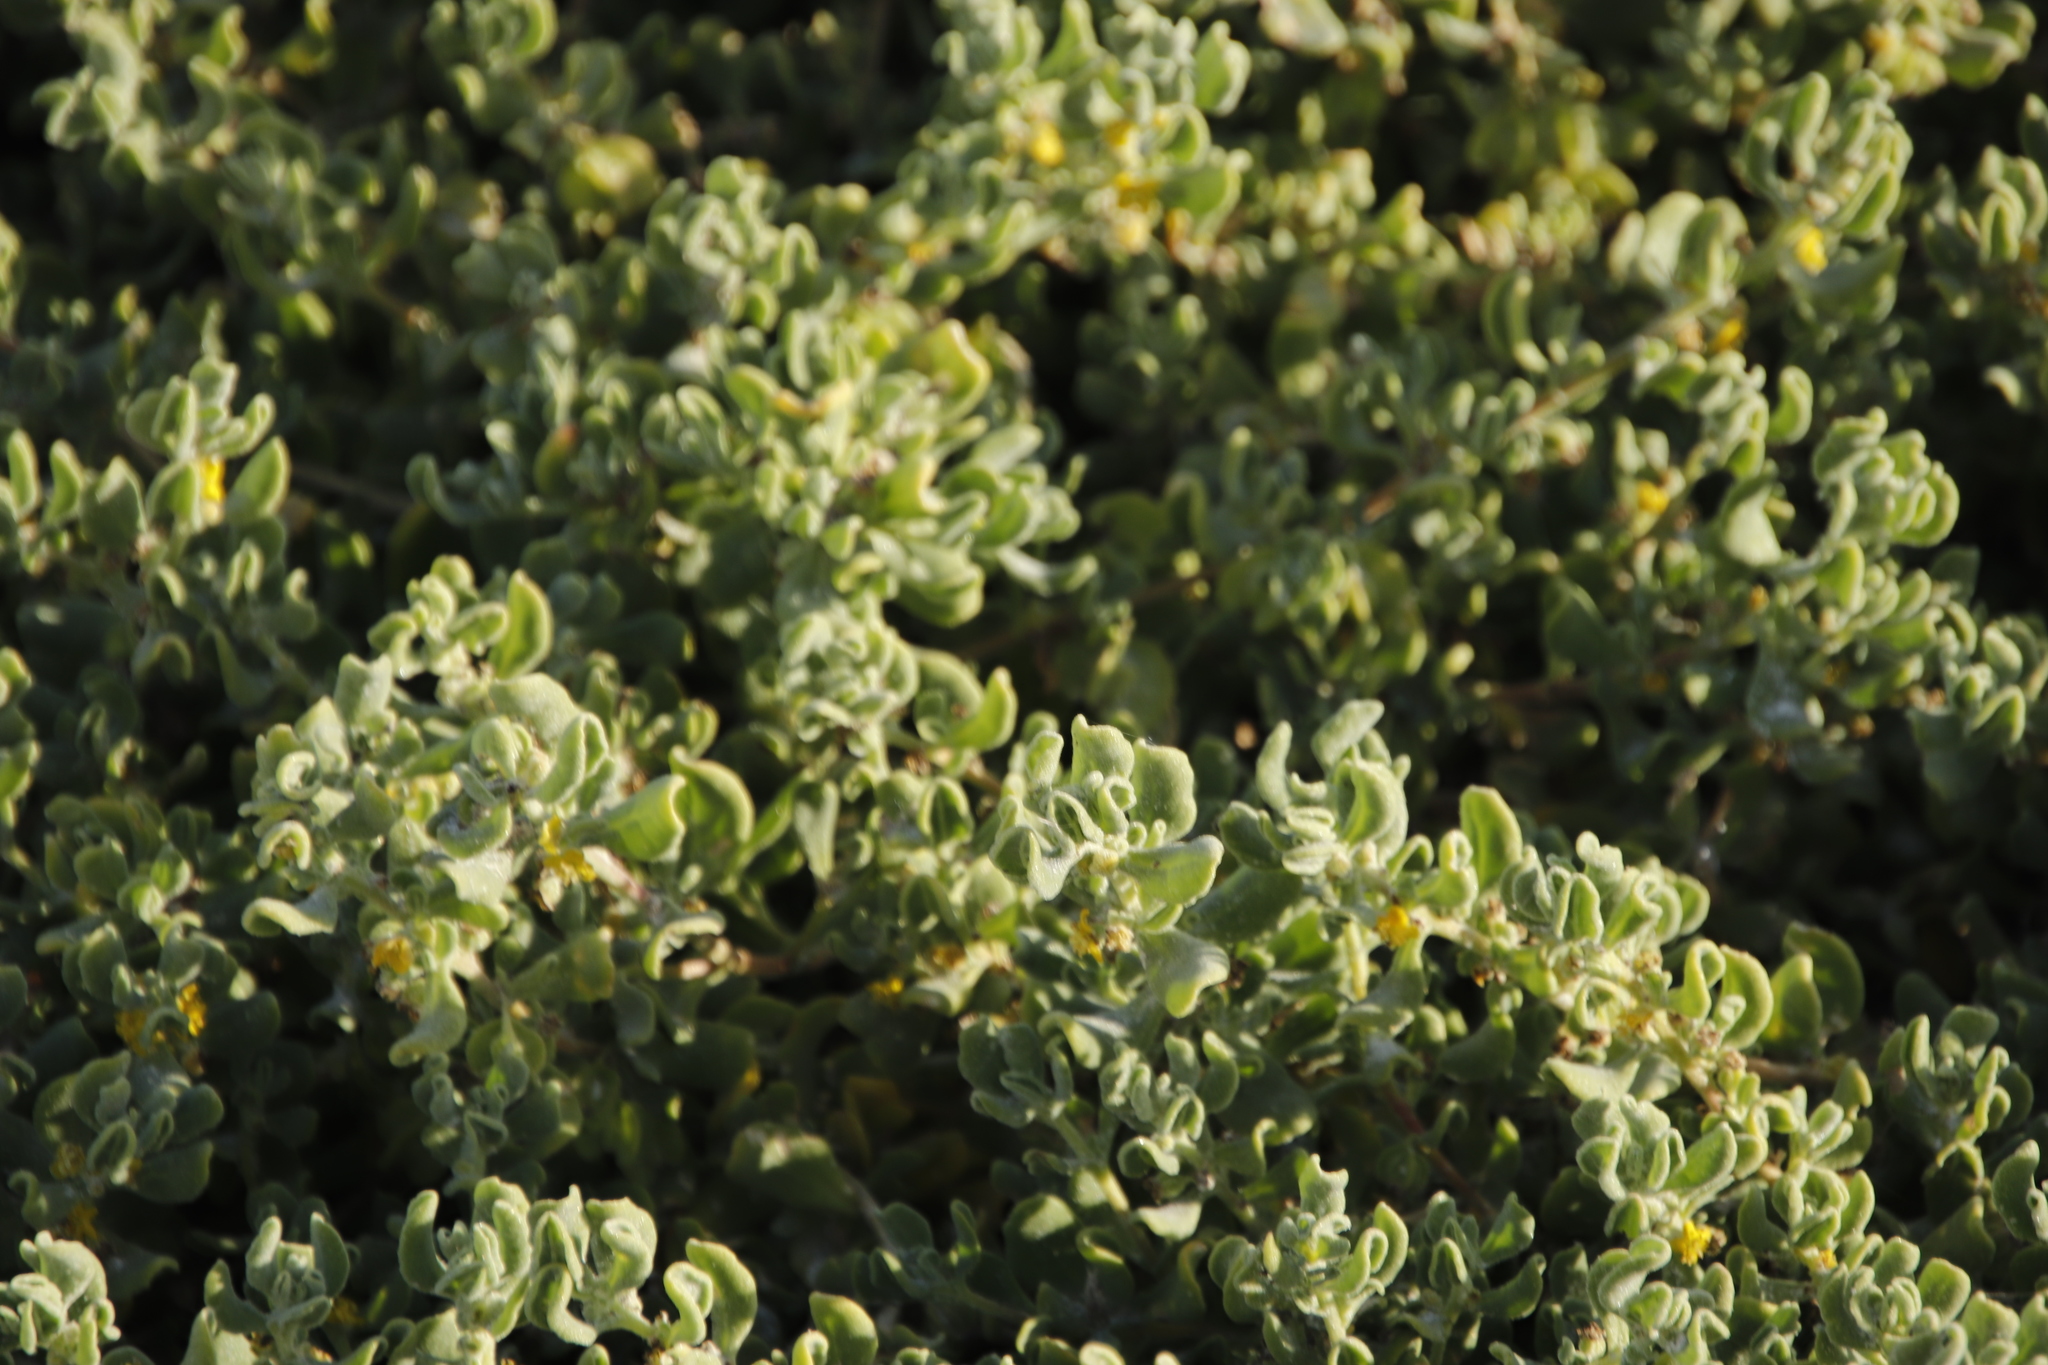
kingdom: Plantae
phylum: Tracheophyta
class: Magnoliopsida
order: Caryophyllales
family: Aizoaceae
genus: Tetragonia
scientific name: Tetragonia decumbens
